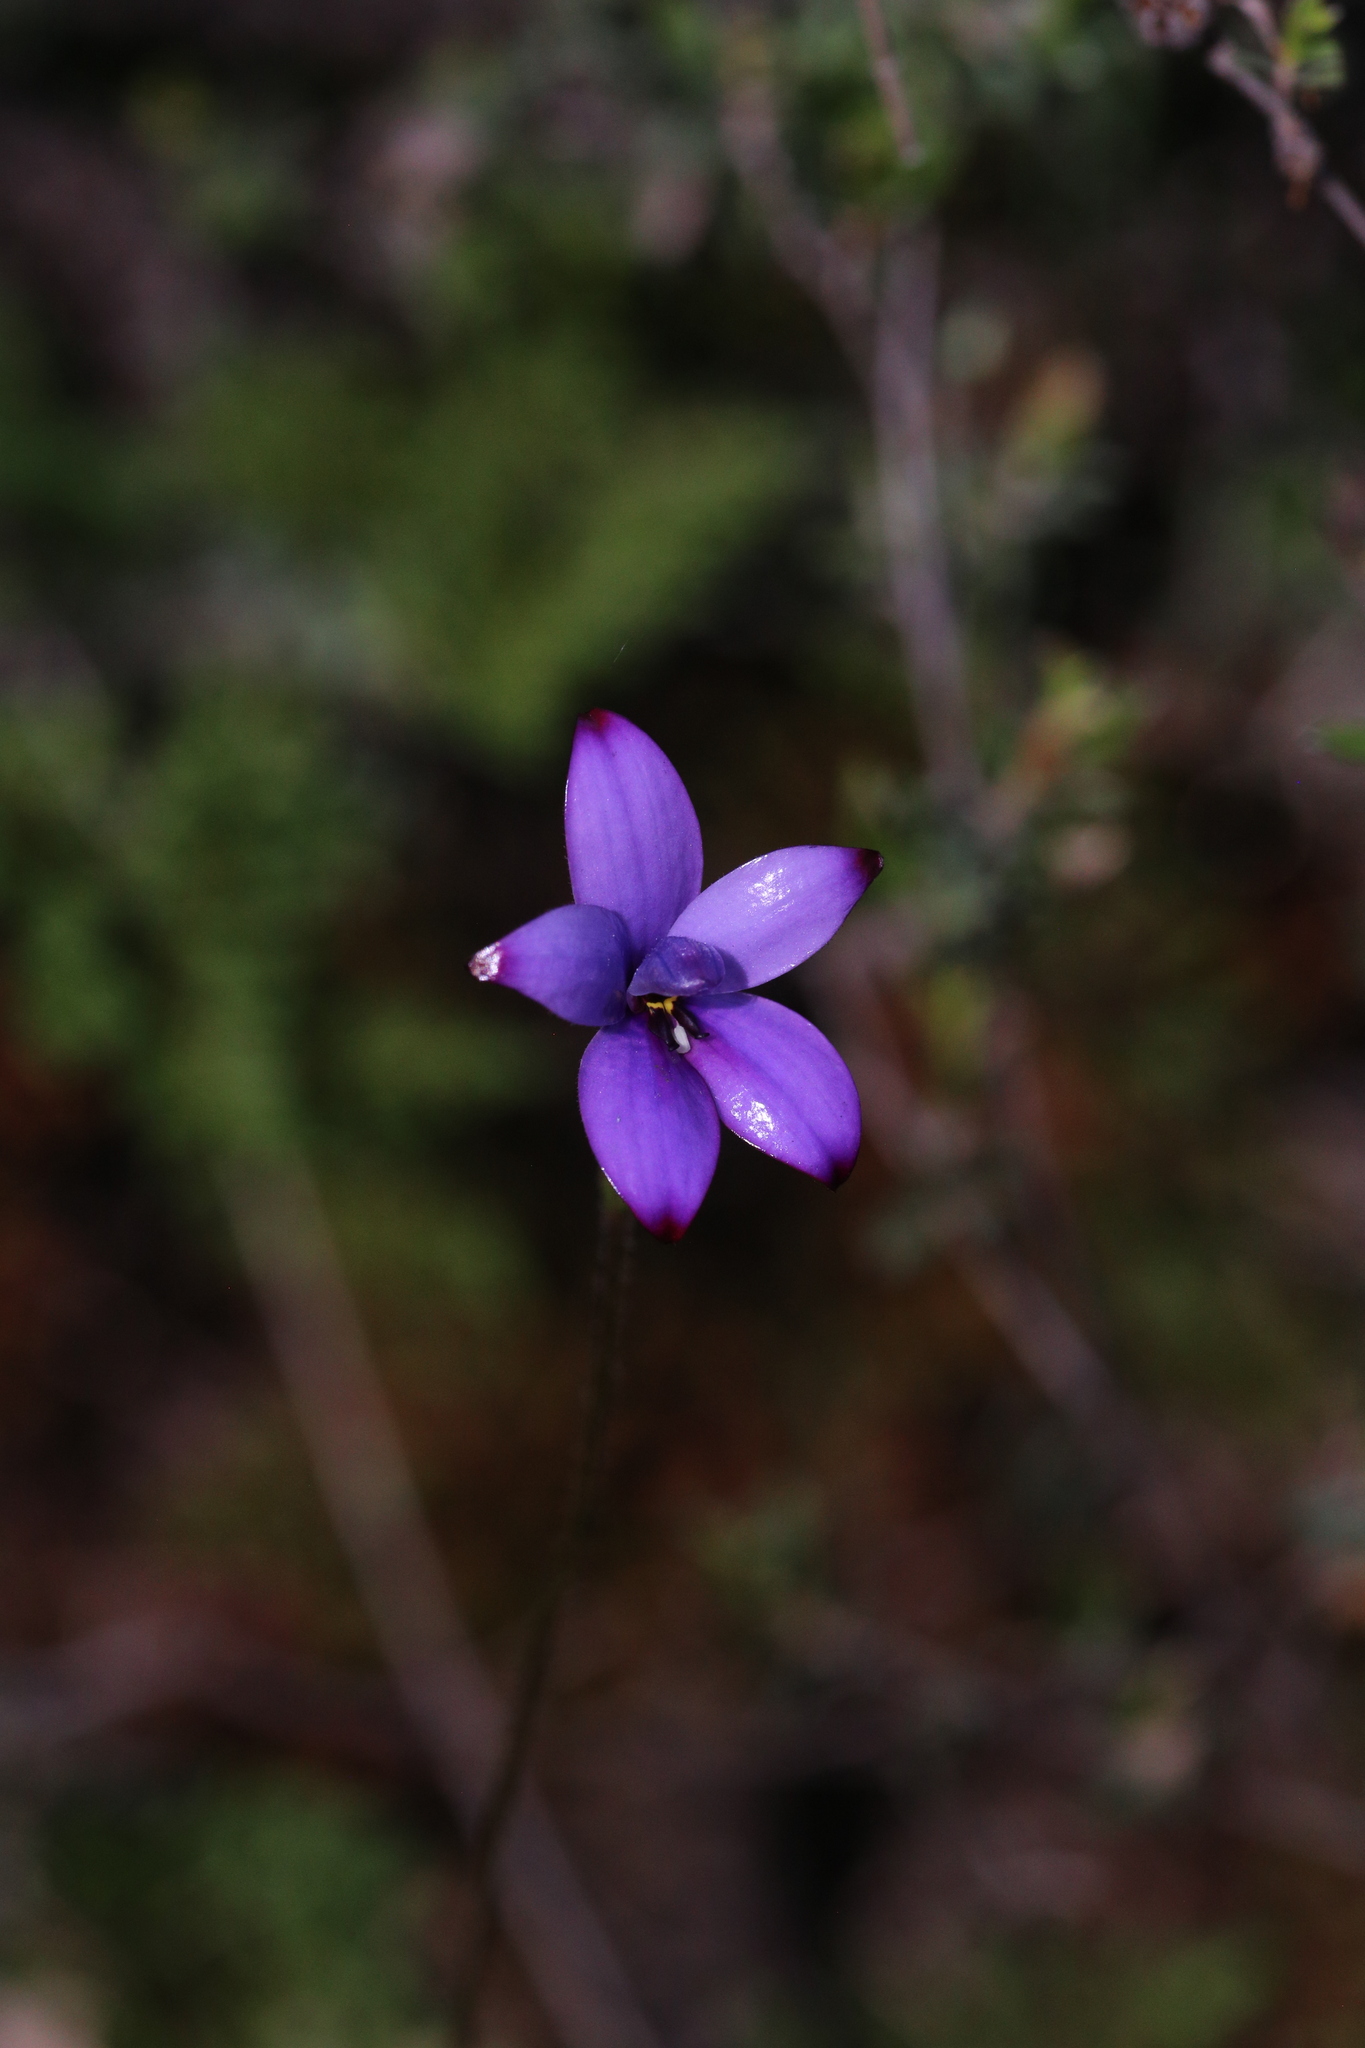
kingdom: Plantae
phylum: Tracheophyta
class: Liliopsida
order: Asparagales
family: Orchidaceae
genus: Caladenia
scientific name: Caladenia brunonis
